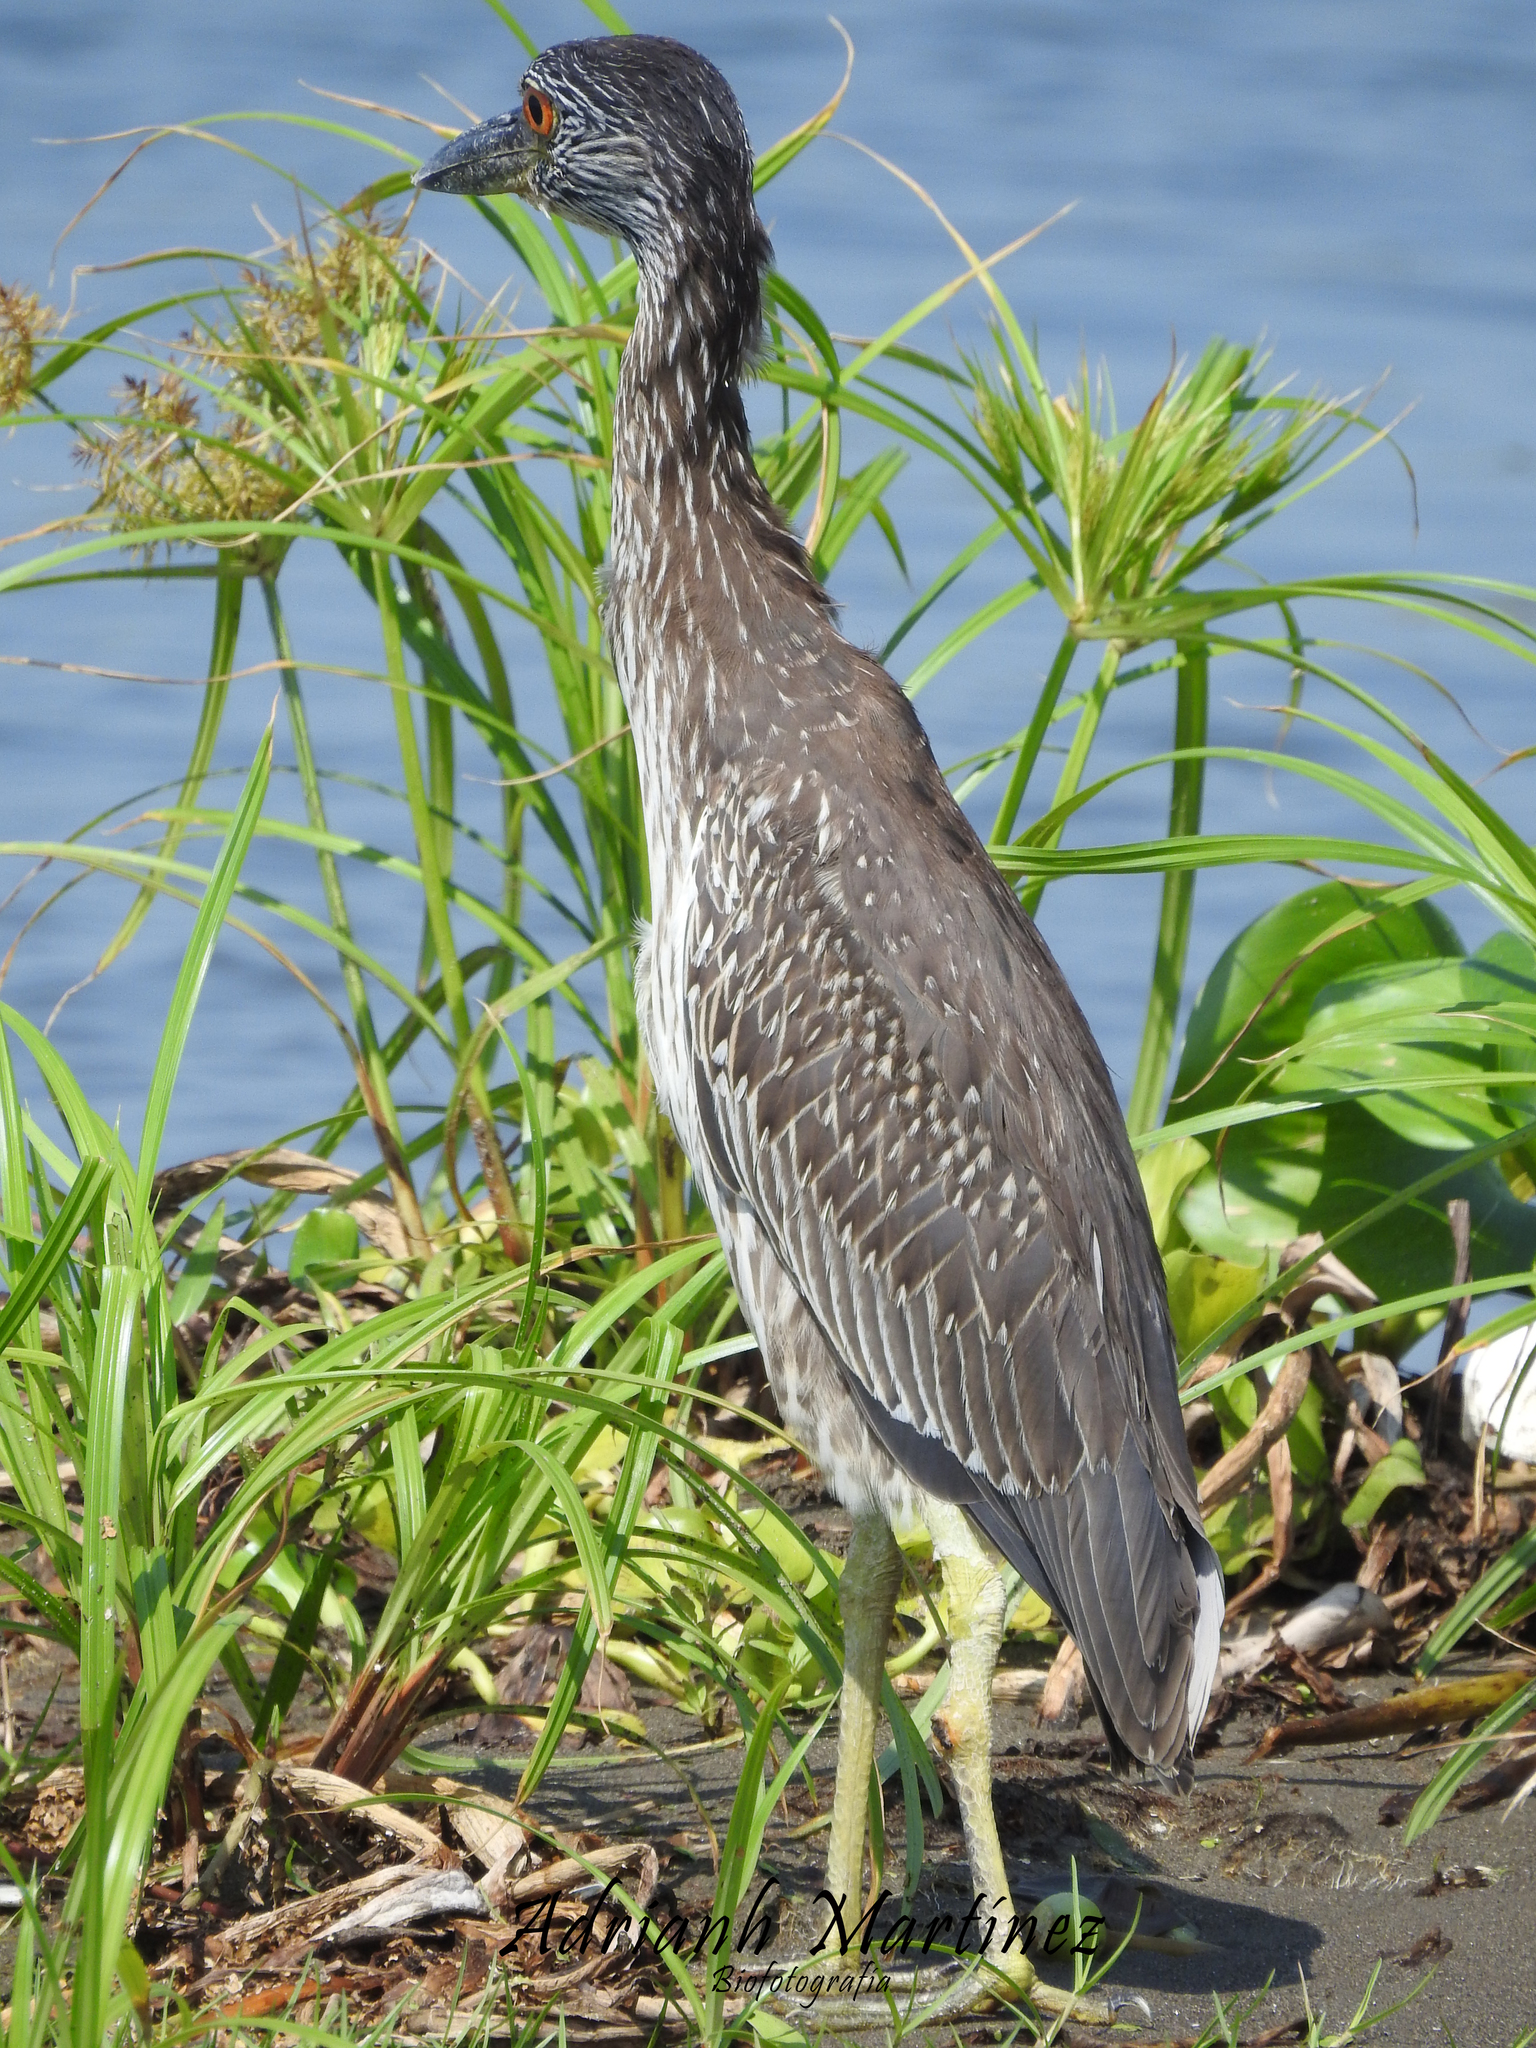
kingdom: Animalia
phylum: Chordata
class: Aves
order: Pelecaniformes
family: Ardeidae
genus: Nyctanassa
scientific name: Nyctanassa violacea
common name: Yellow-crowned night heron
